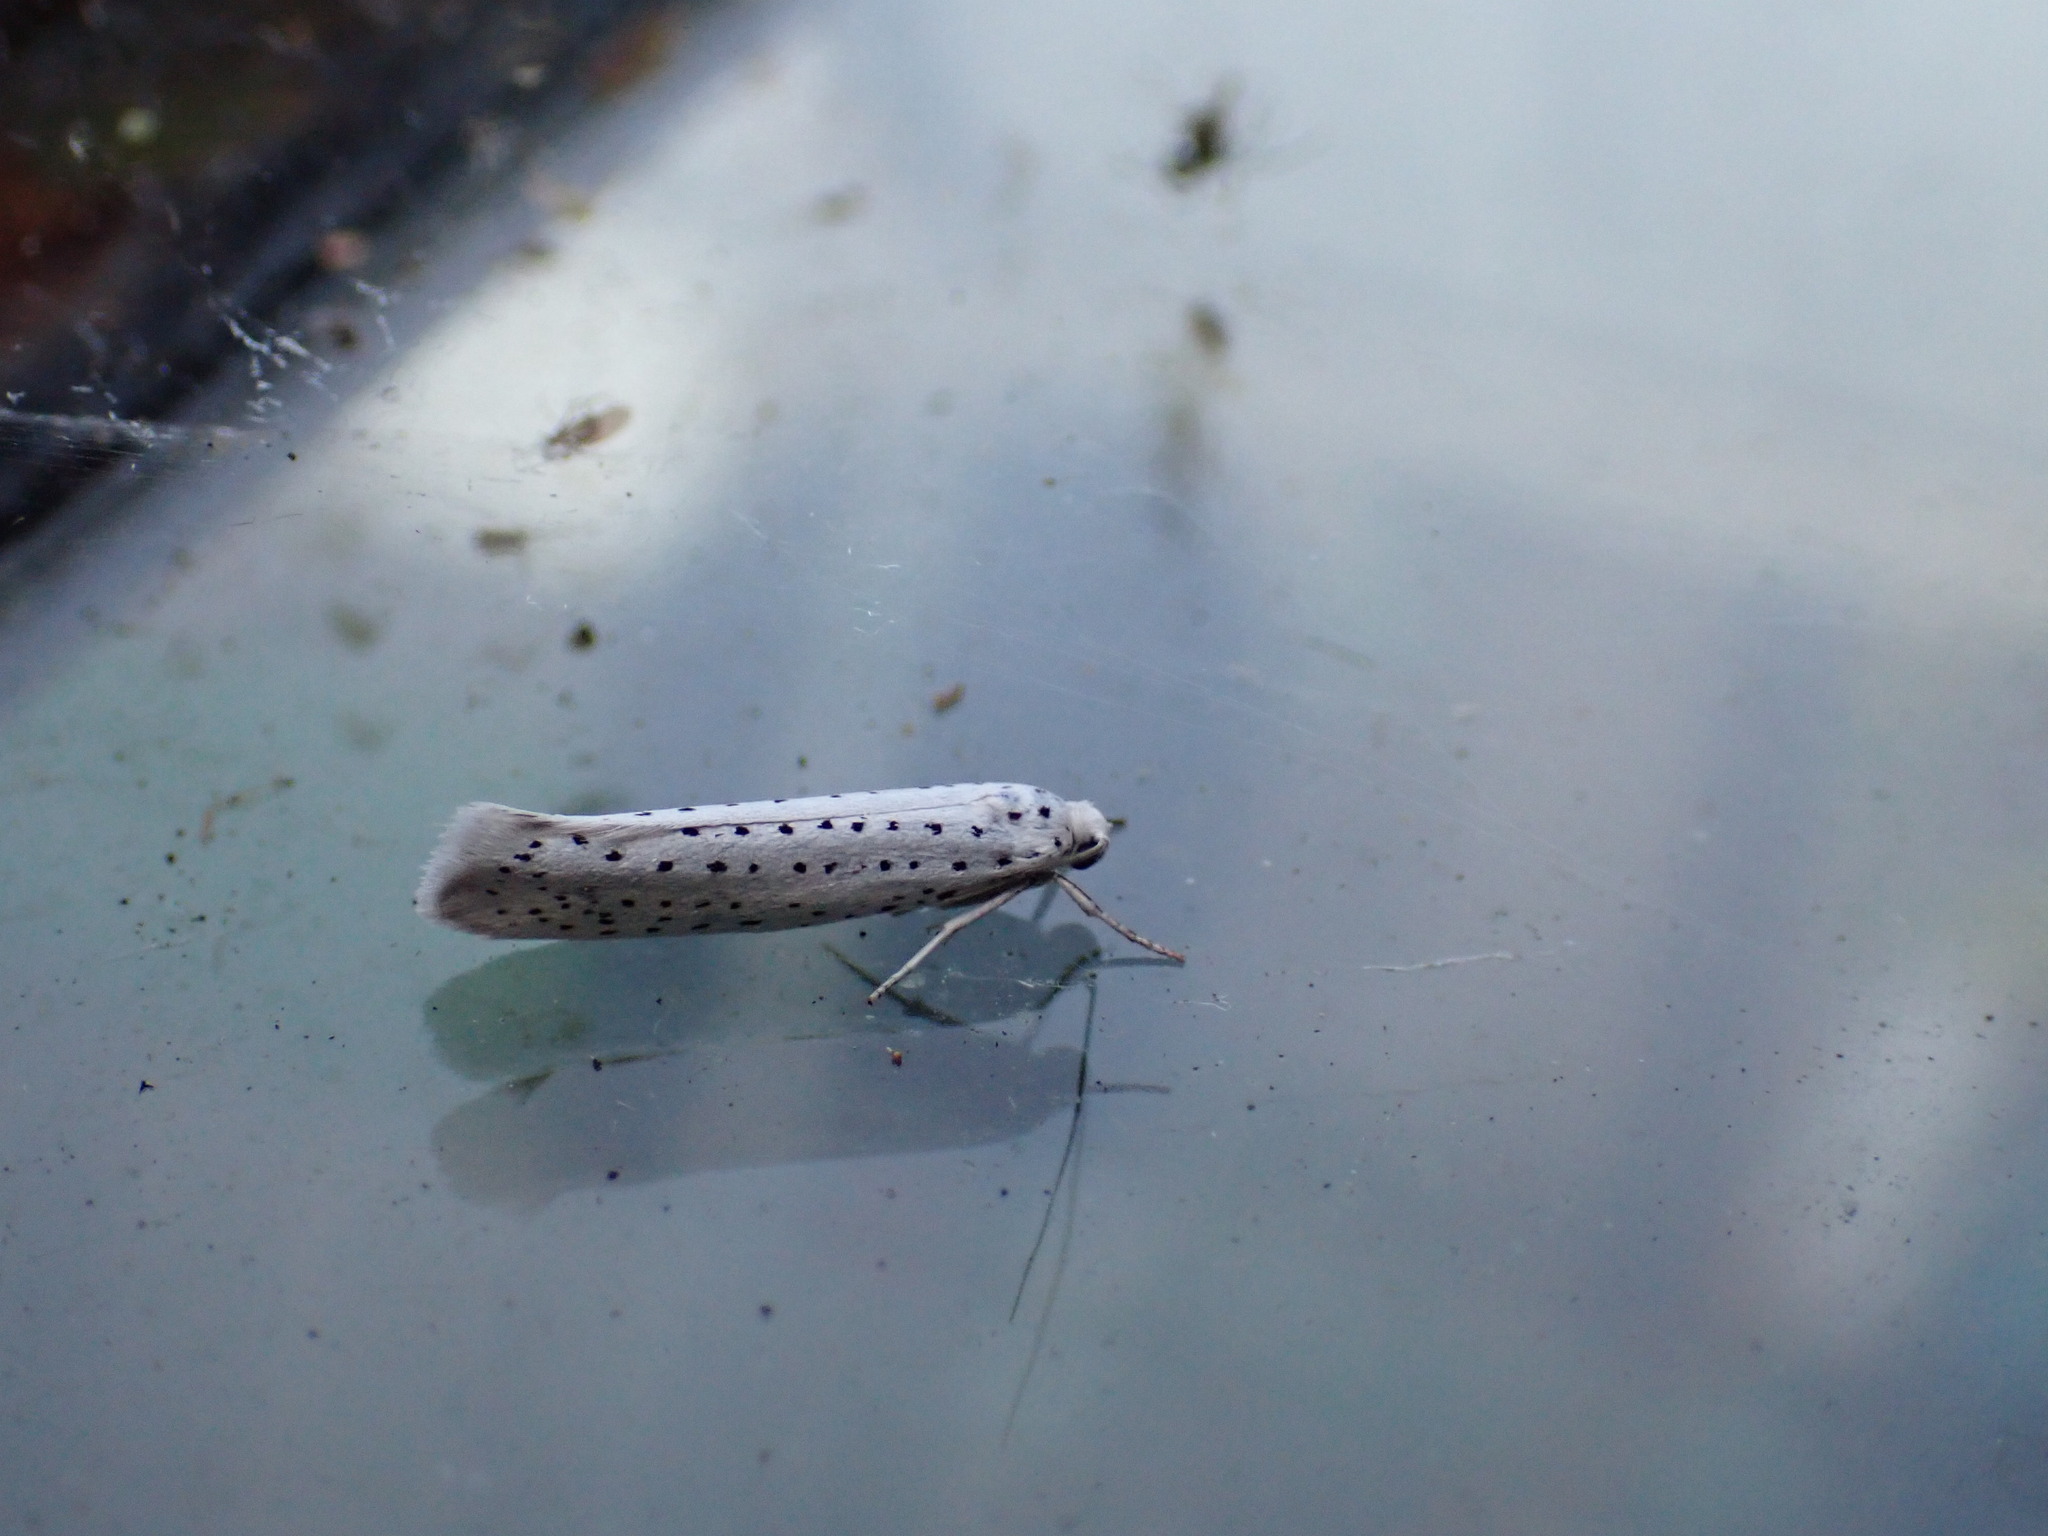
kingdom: Animalia
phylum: Arthropoda
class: Insecta
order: Lepidoptera
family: Yponomeutidae
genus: Yponomeuta
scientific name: Yponomeuta evonymella
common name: Bird-cherry ermine
